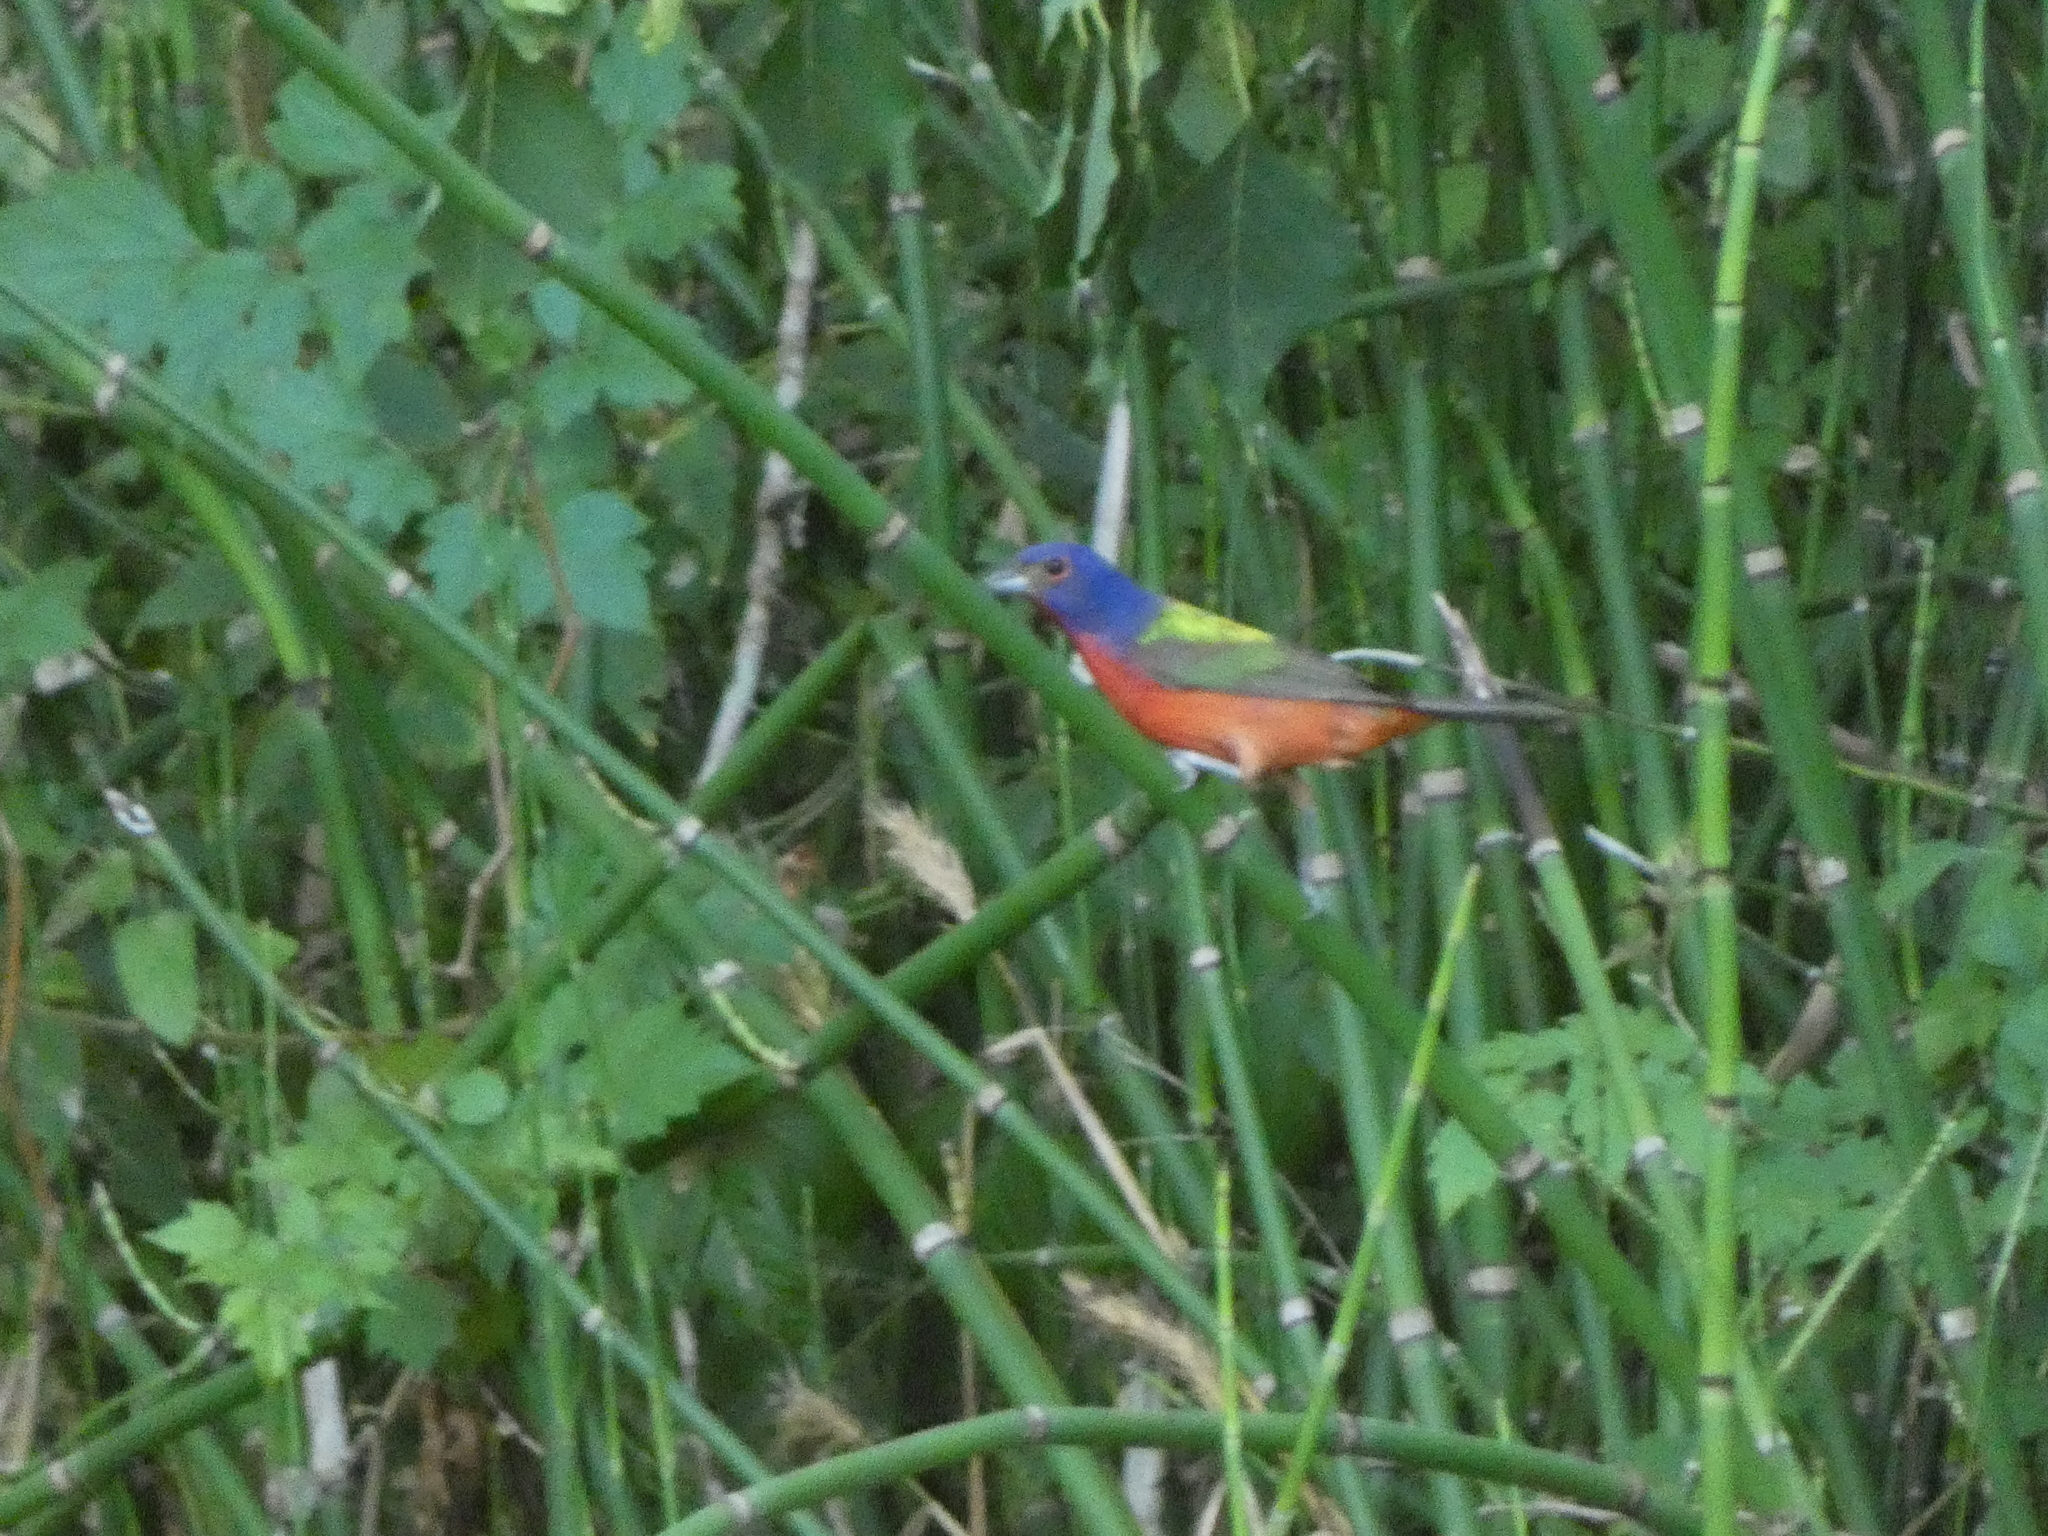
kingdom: Animalia
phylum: Chordata
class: Aves
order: Passeriformes
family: Cardinalidae
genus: Passerina
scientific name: Passerina ciris
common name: Painted bunting
